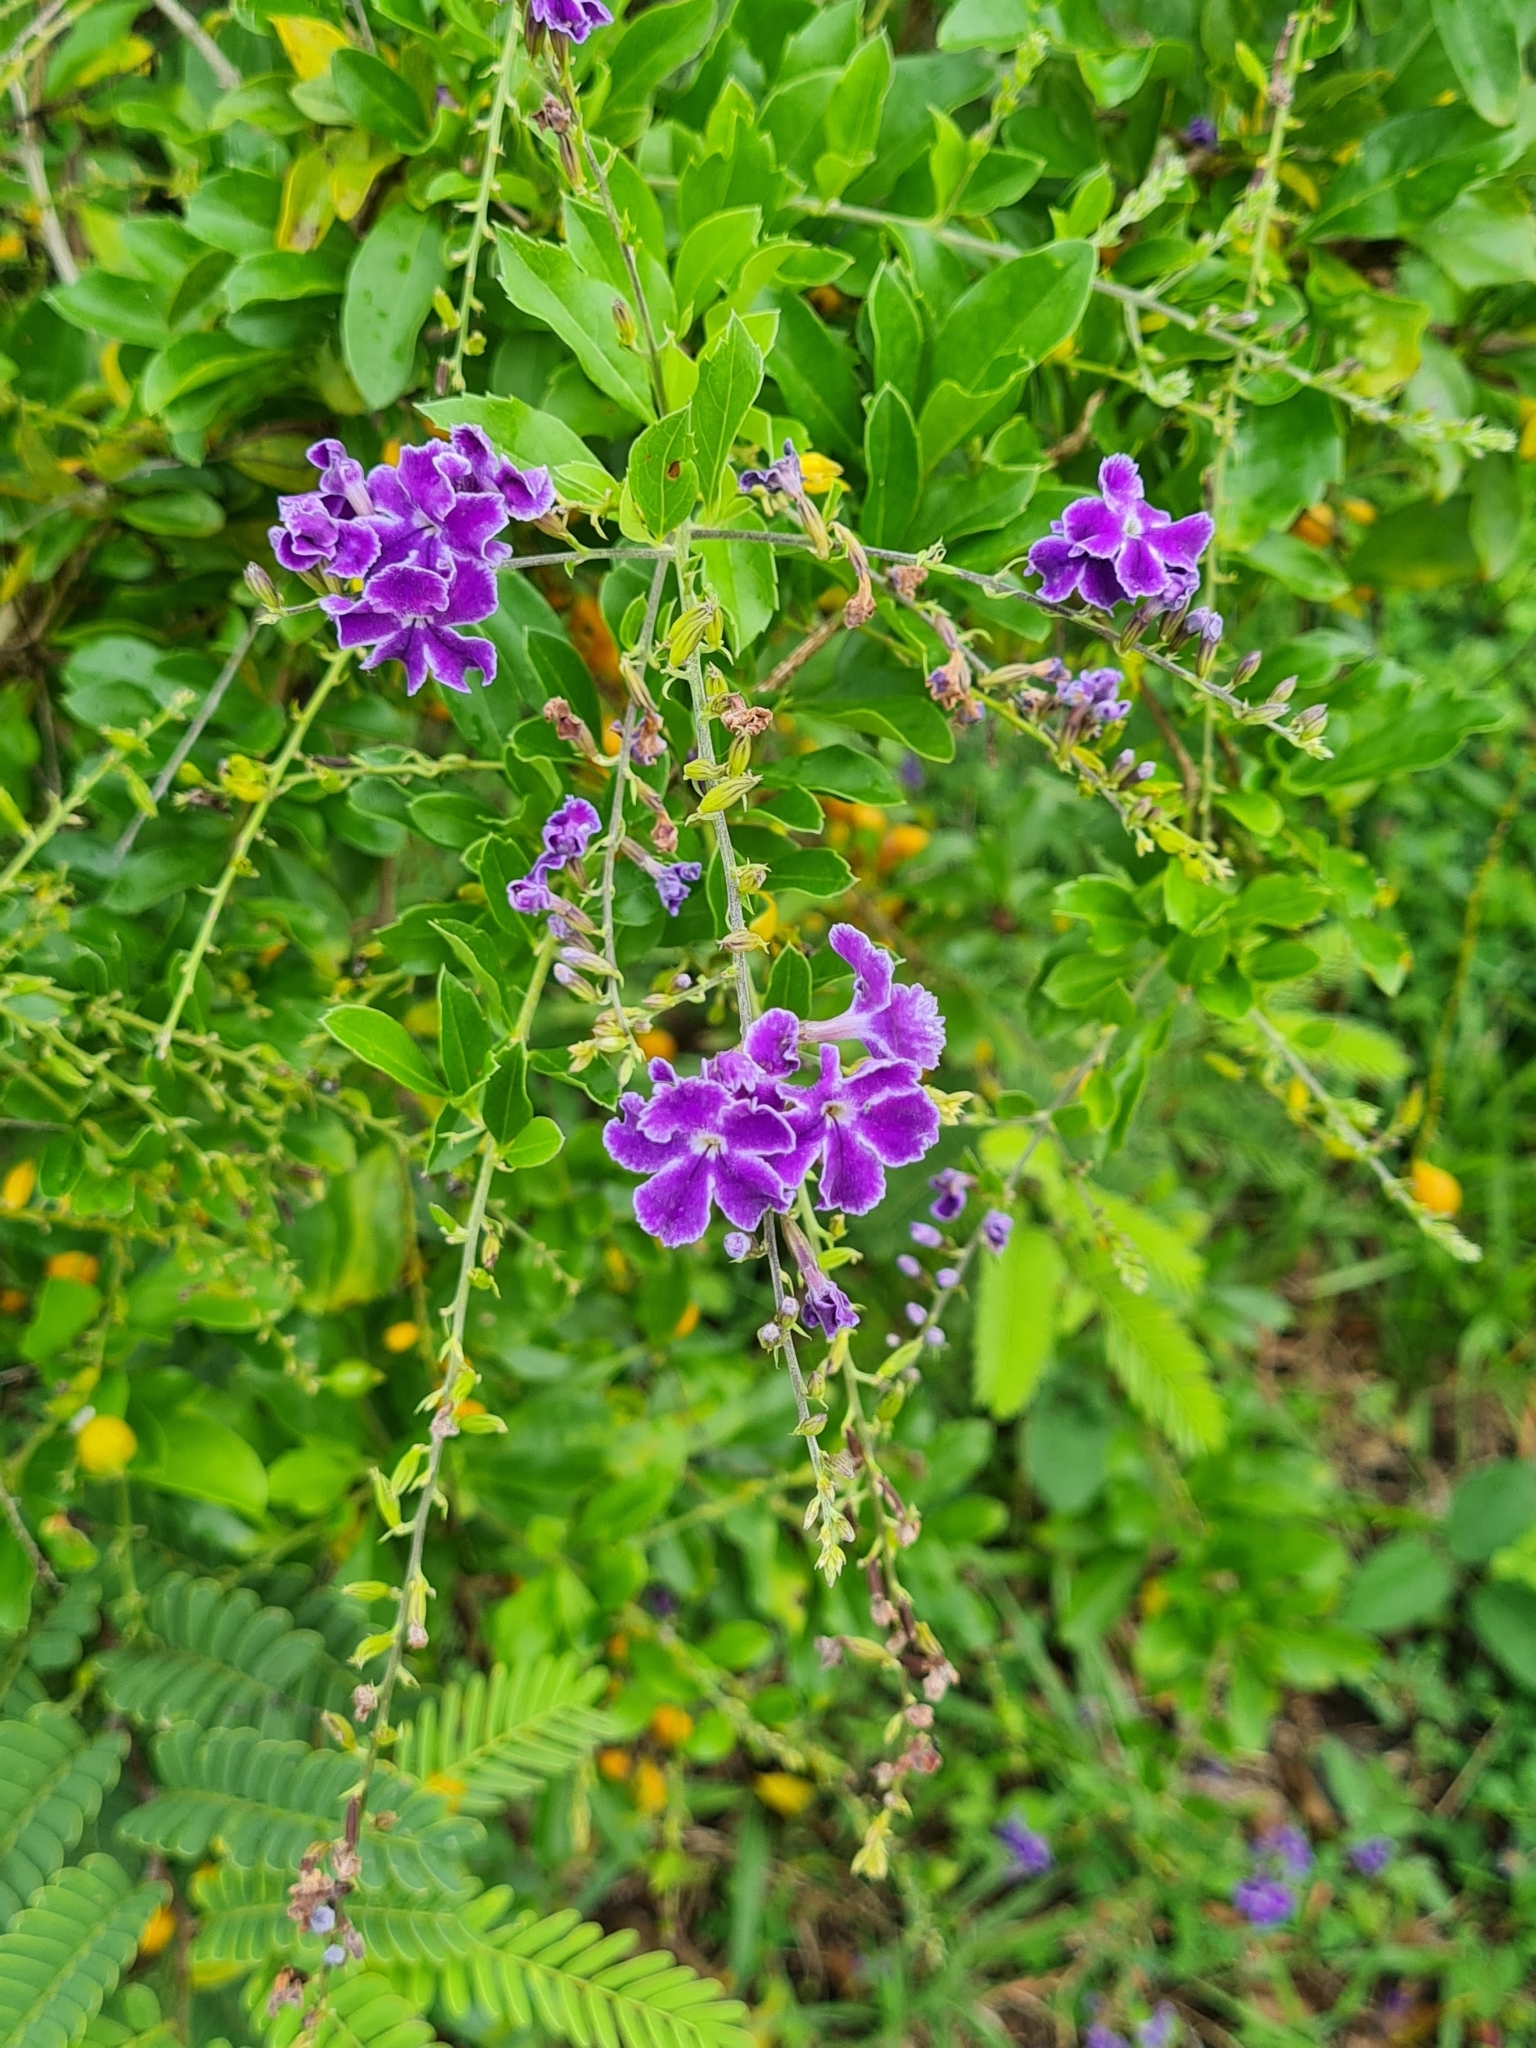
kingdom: Plantae
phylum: Tracheophyta
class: Magnoliopsida
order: Lamiales
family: Verbenaceae
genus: Duranta
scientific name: Duranta erecta
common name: Golden dewdrops
